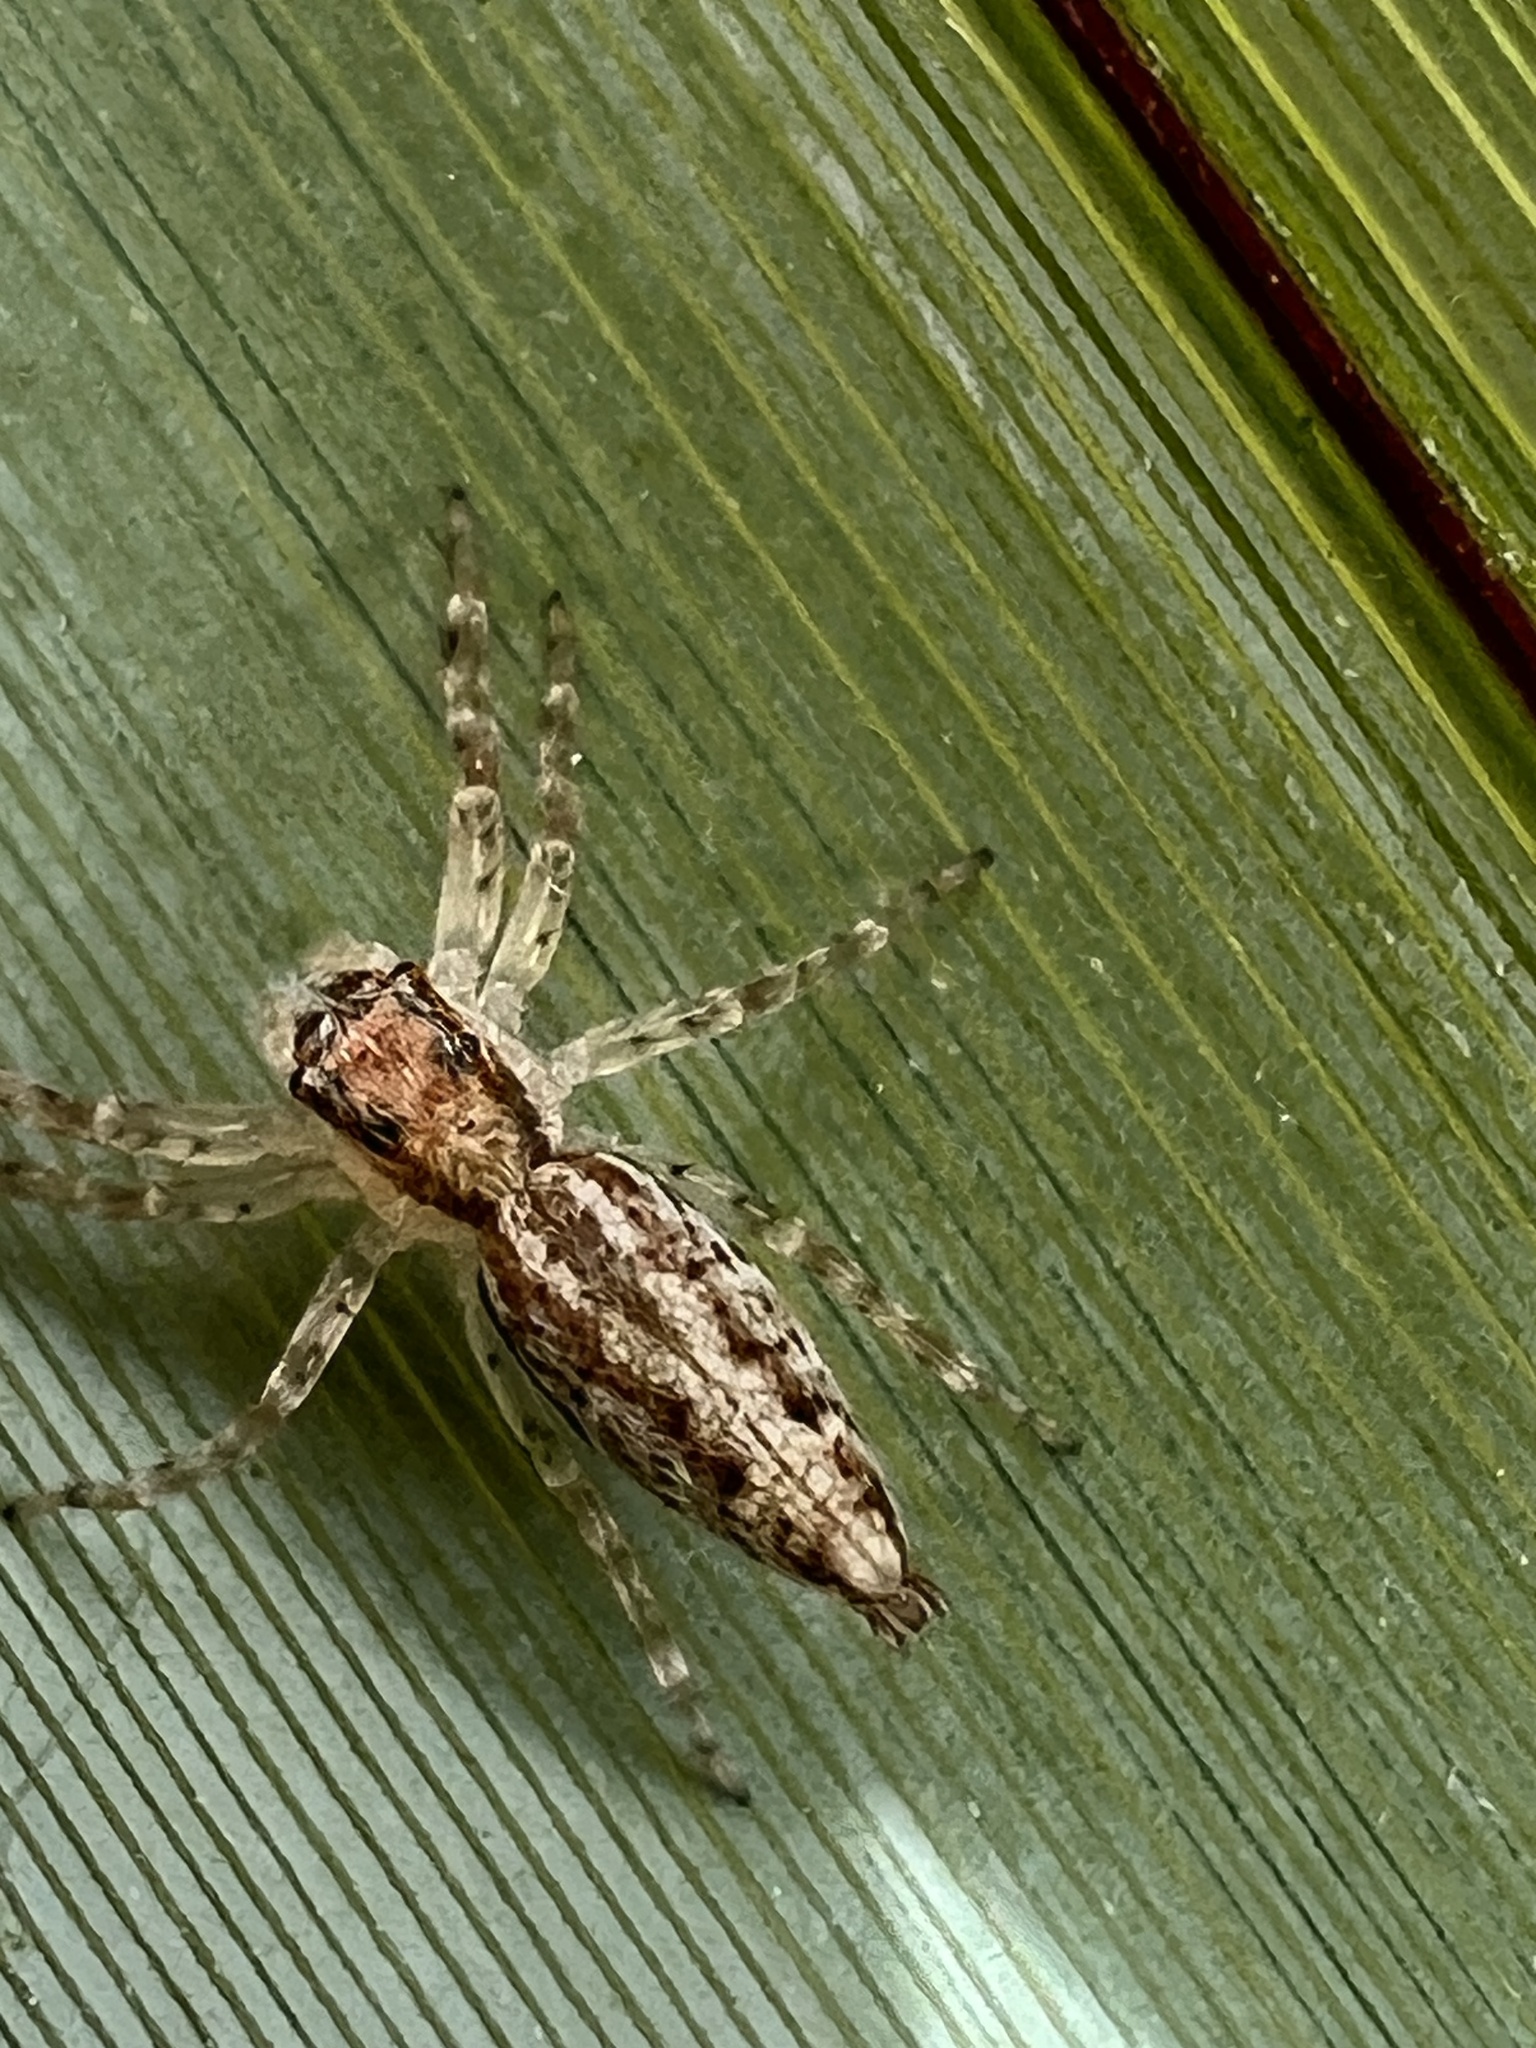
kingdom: Animalia
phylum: Arthropoda
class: Arachnida
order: Araneae
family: Salticidae
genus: Helpis
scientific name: Helpis minitabunda
